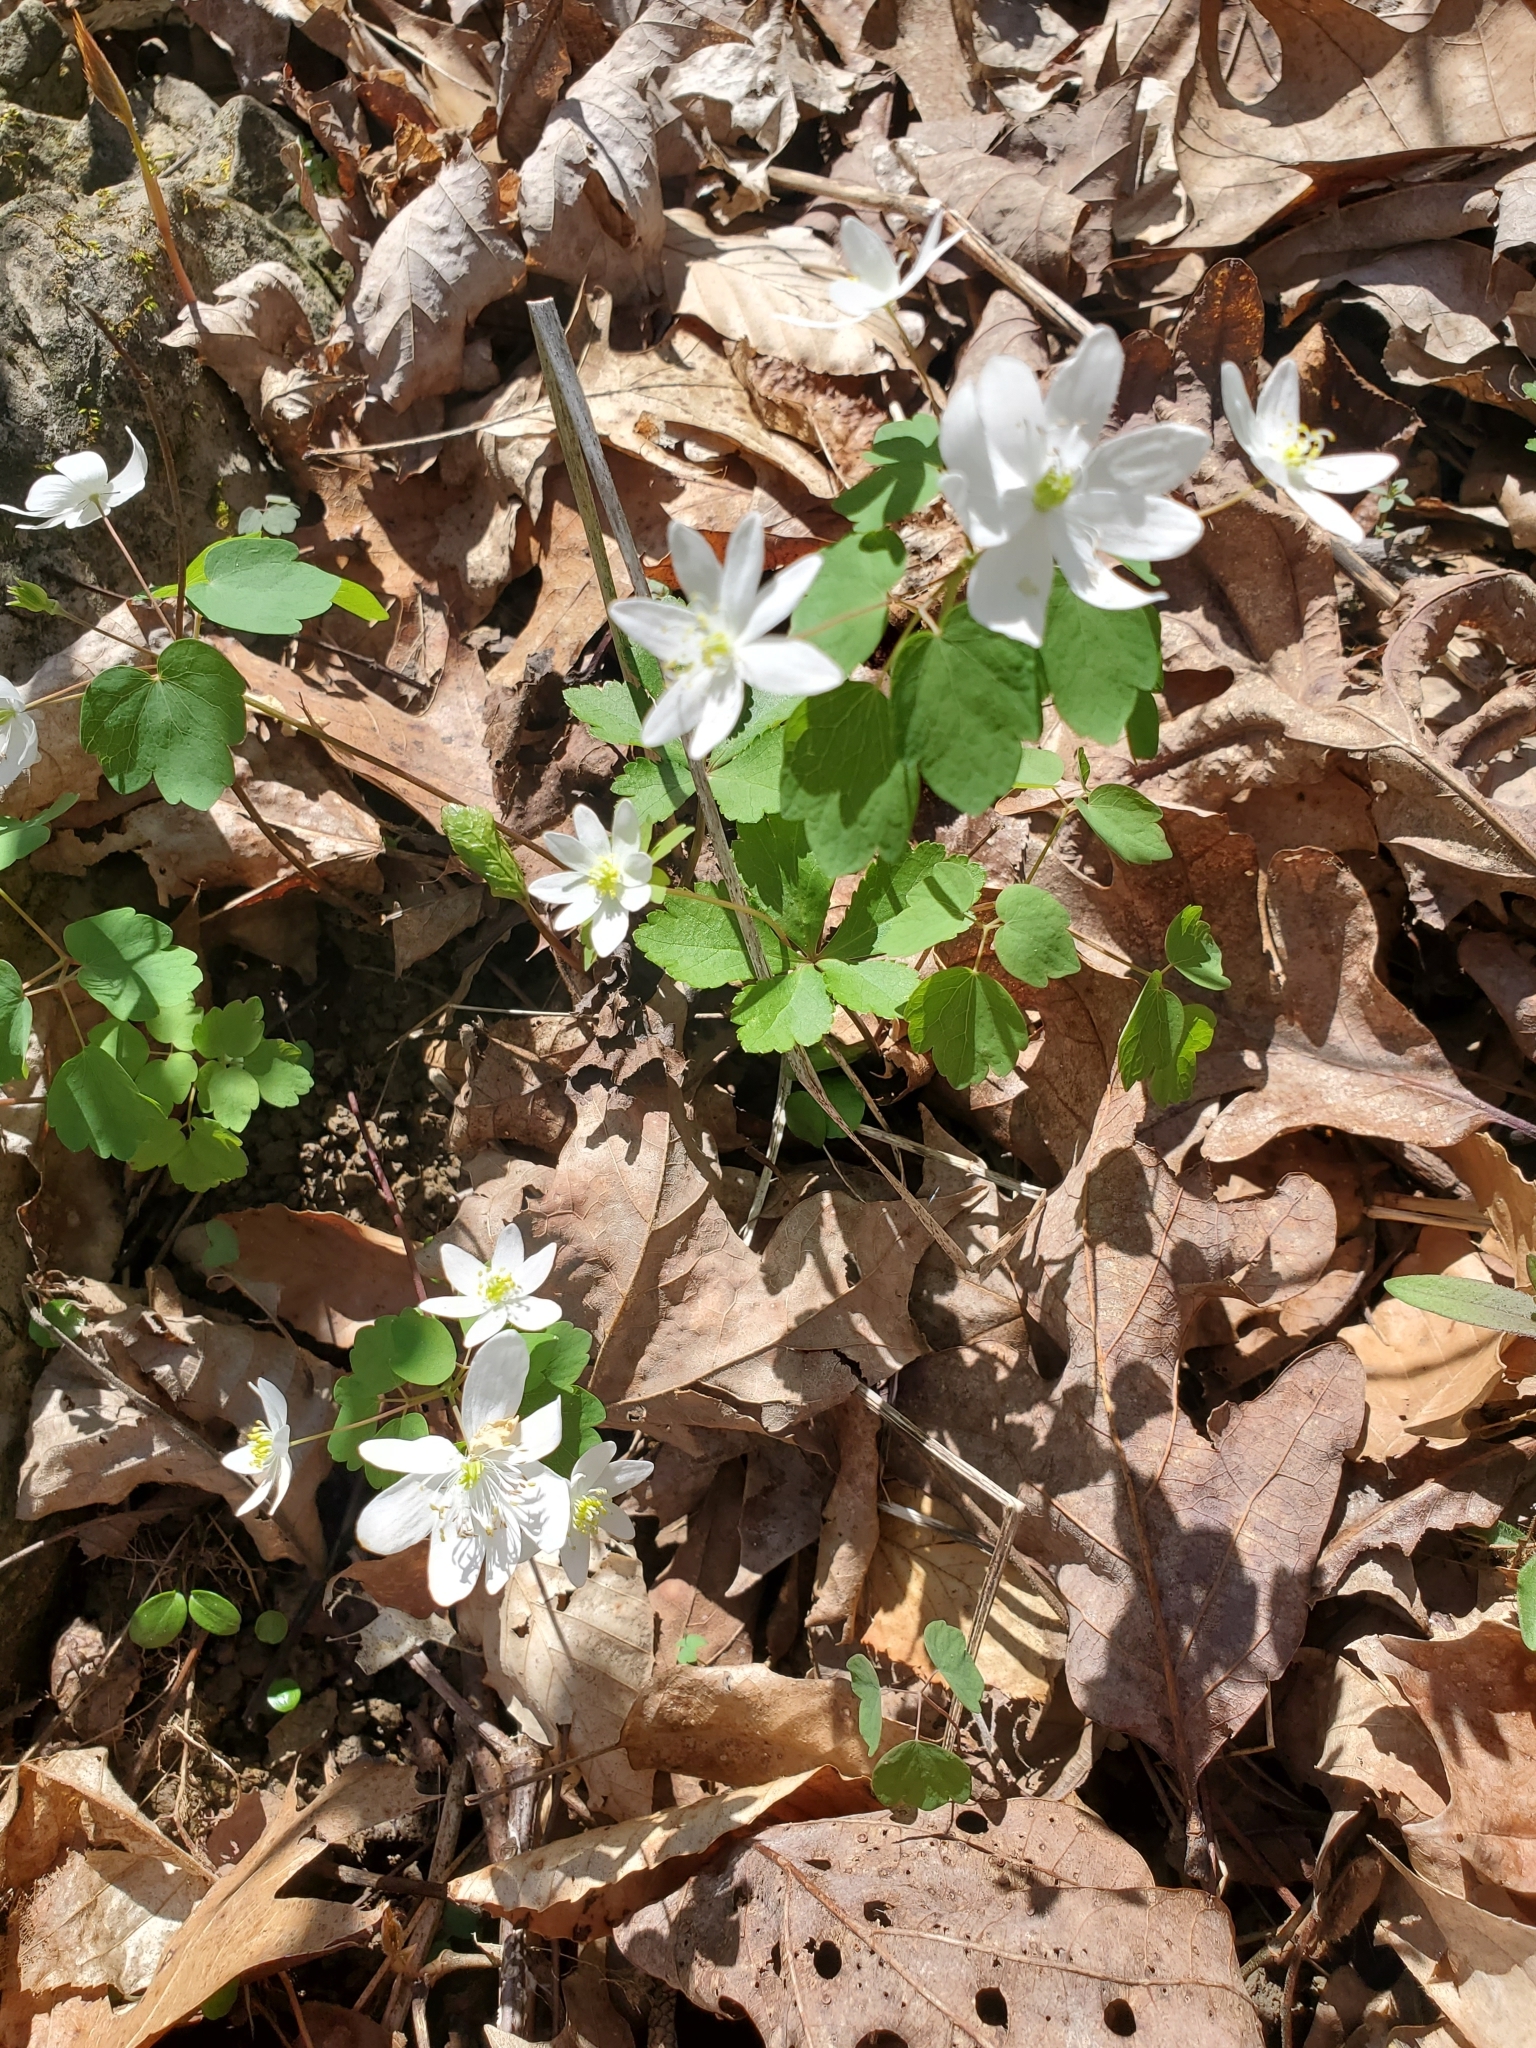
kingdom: Plantae
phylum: Tracheophyta
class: Magnoliopsida
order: Ranunculales
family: Ranunculaceae
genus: Thalictrum
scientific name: Thalictrum thalictroides
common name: Rue-anemone
